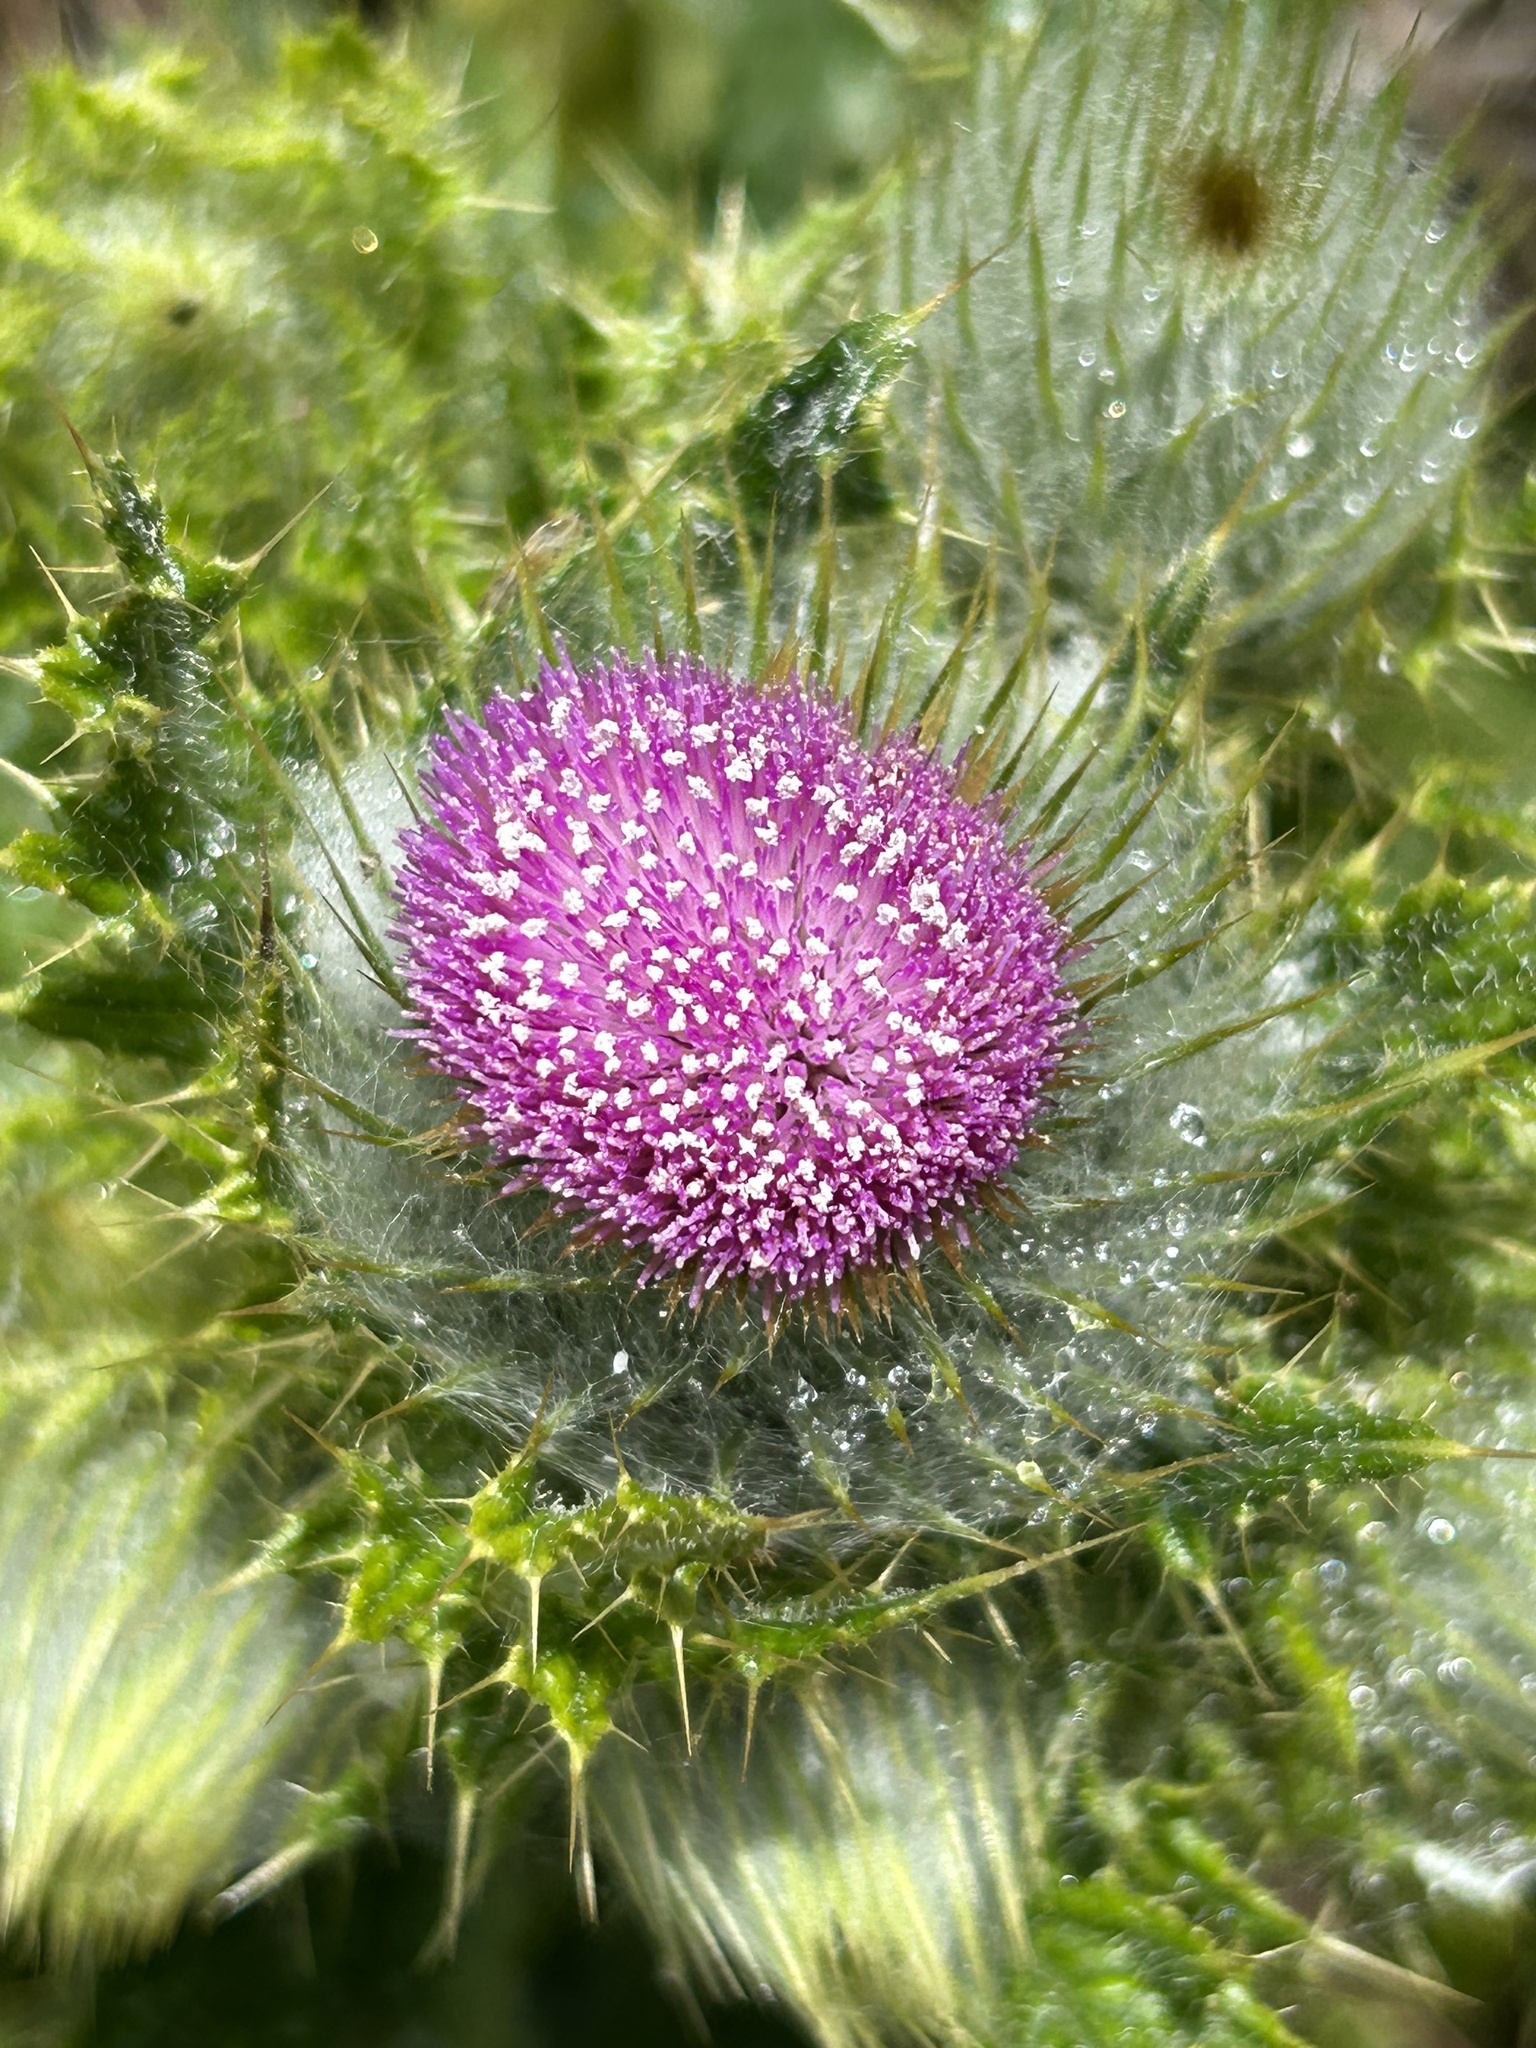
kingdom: Plantae
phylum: Tracheophyta
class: Magnoliopsida
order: Asterales
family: Asteraceae
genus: Cirsium
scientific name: Cirsium brevistylum
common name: Indian thistle
